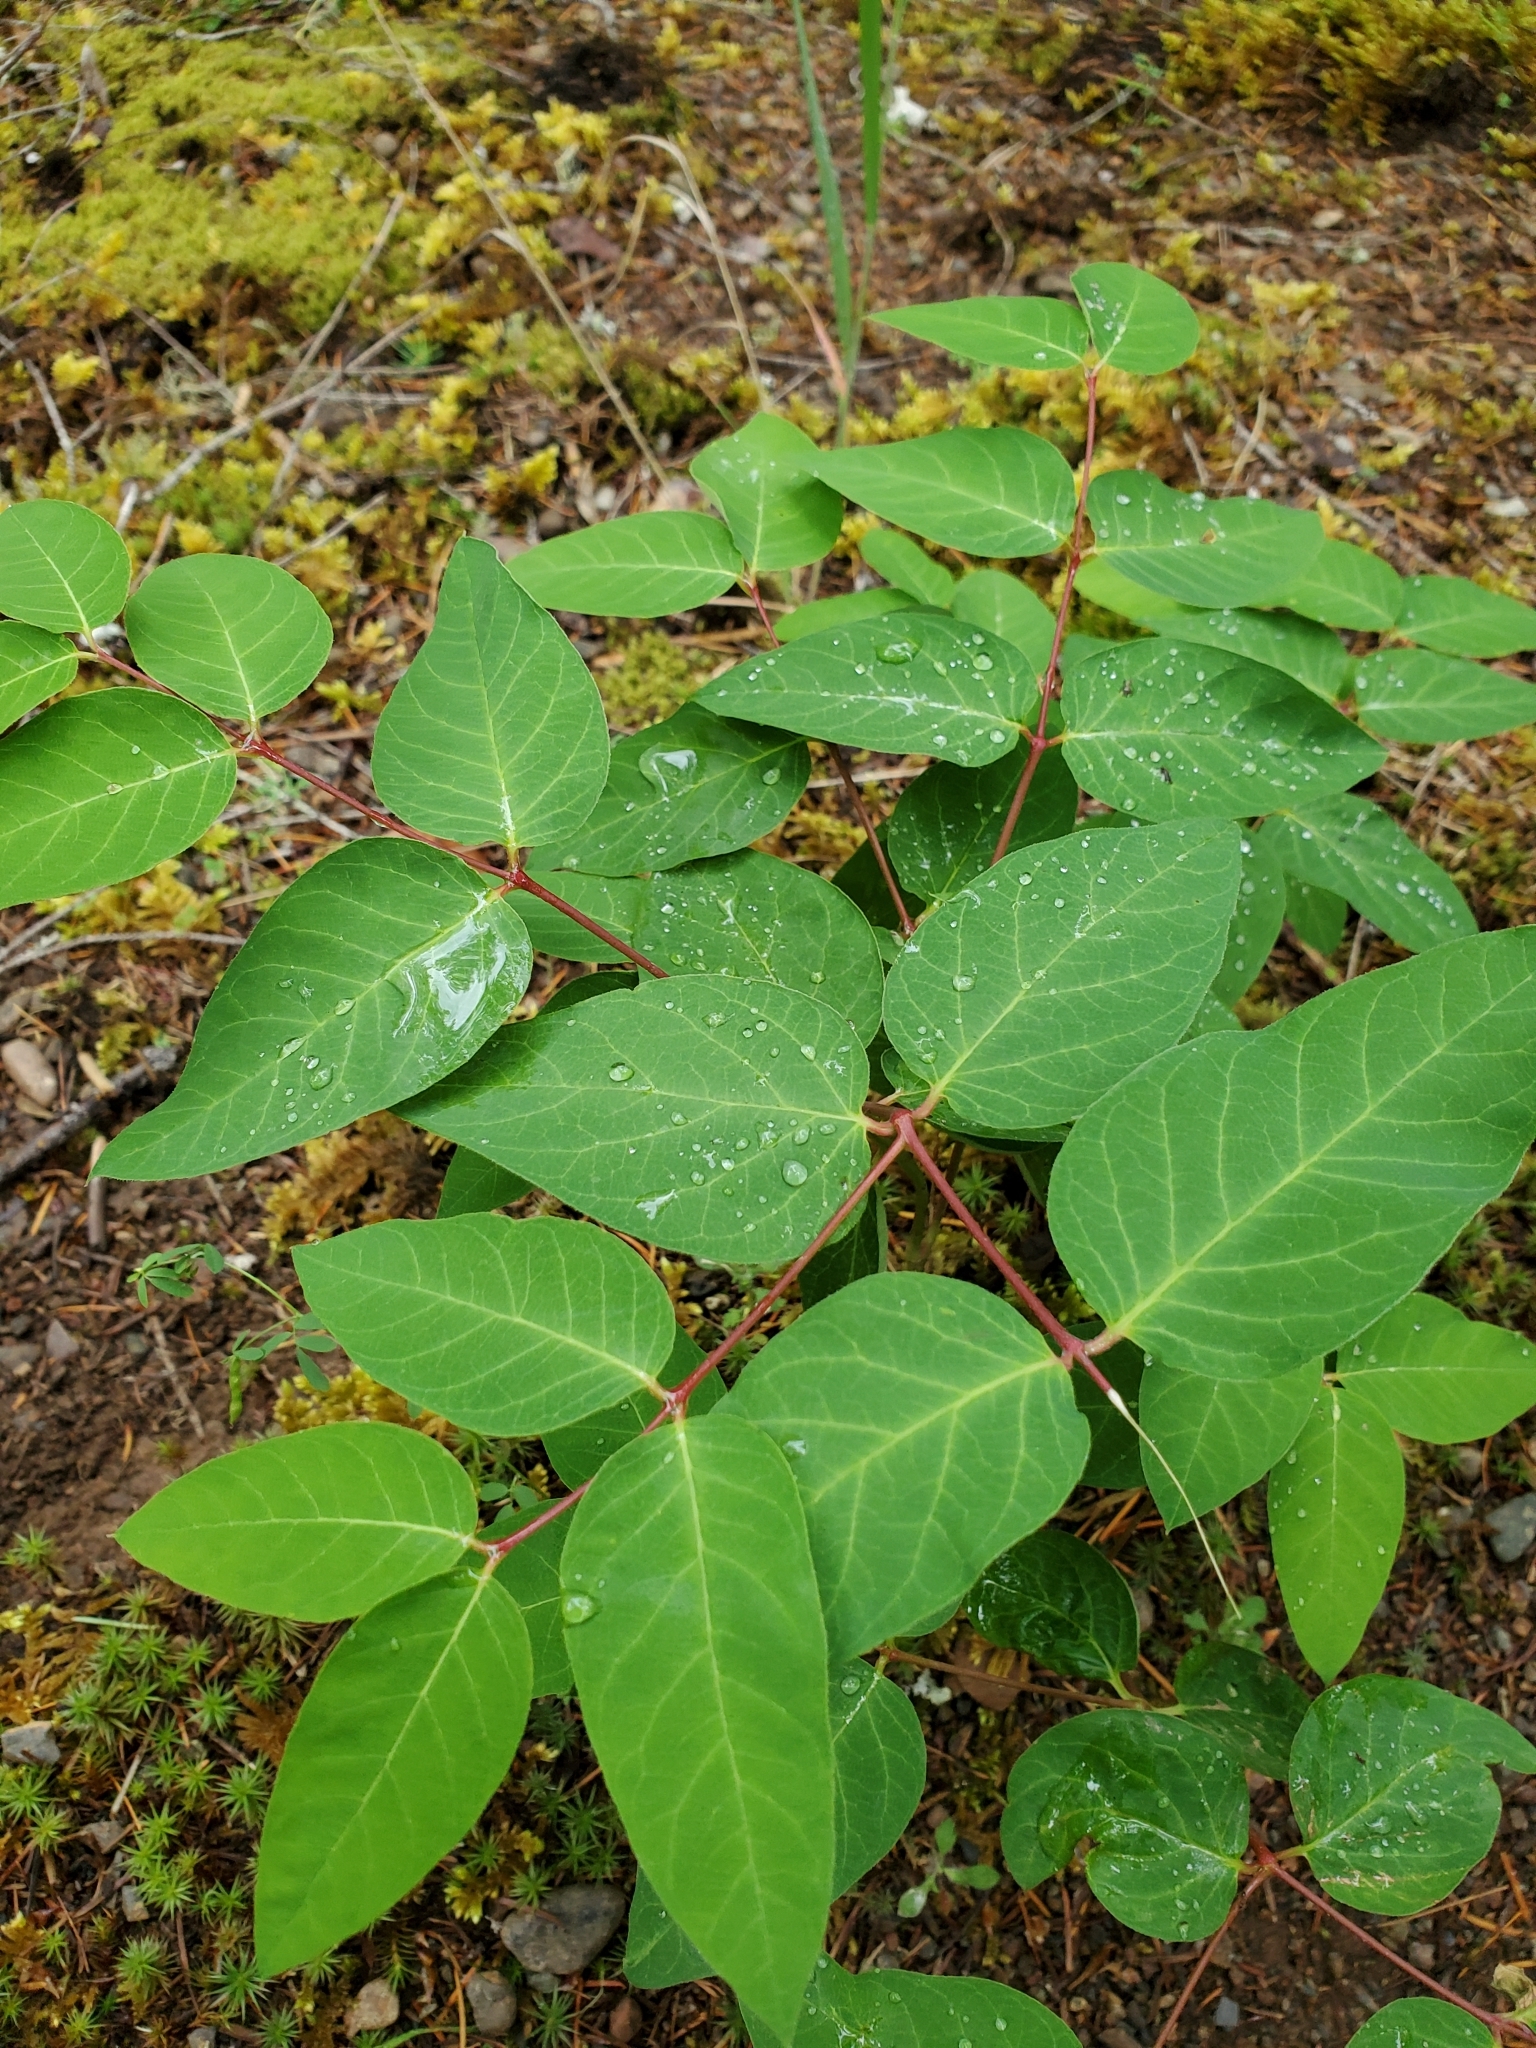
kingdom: Plantae
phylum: Tracheophyta
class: Magnoliopsida
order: Gentianales
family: Apocynaceae
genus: Apocynum
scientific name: Apocynum androsaemifolium
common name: Spreading dogbane
